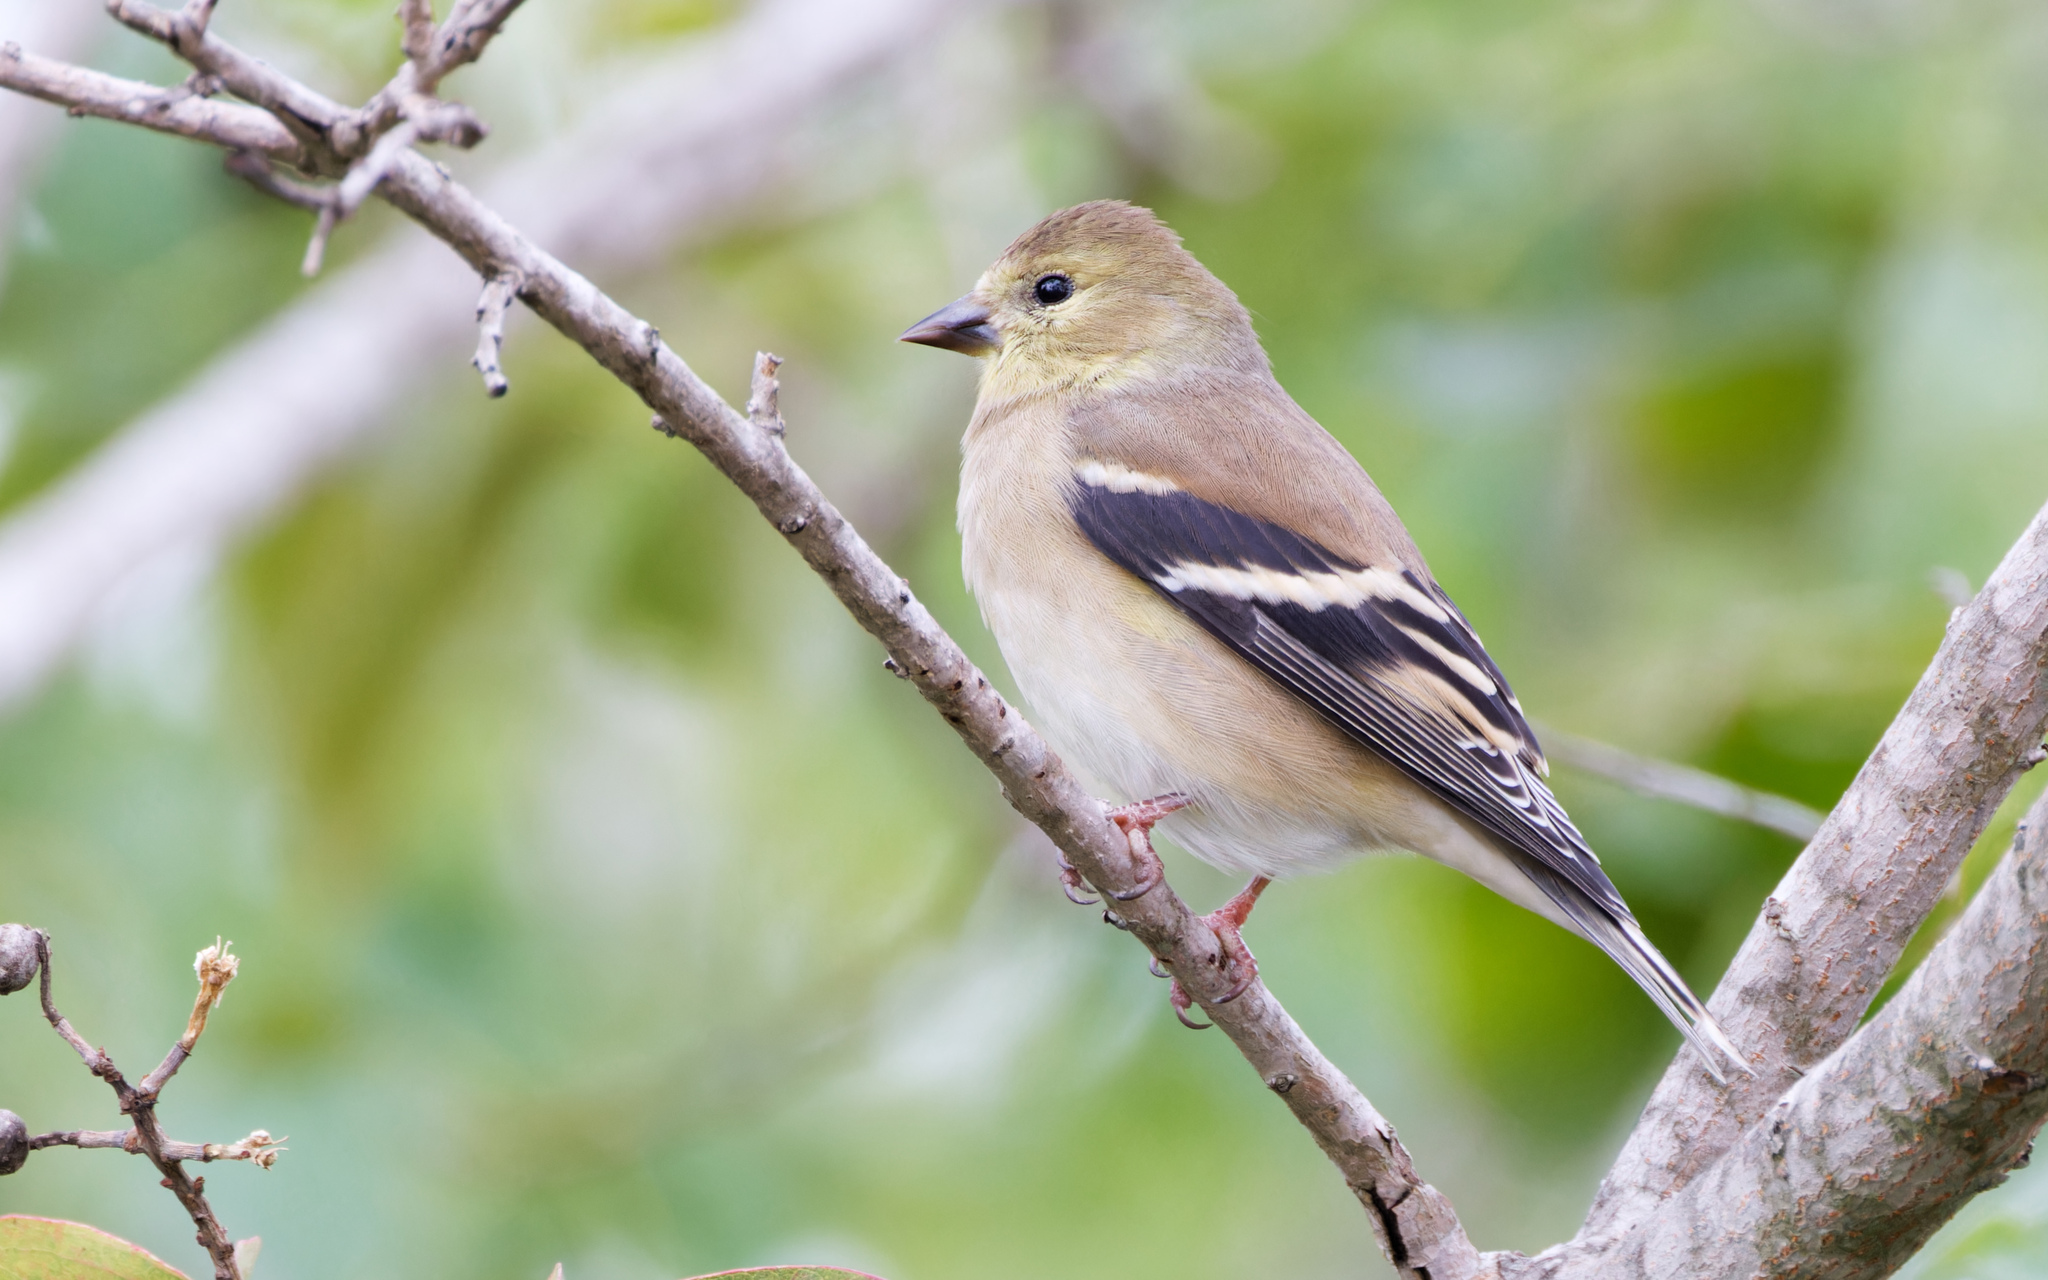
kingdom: Animalia
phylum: Chordata
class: Aves
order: Passeriformes
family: Fringillidae
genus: Spinus
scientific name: Spinus tristis
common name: American goldfinch
